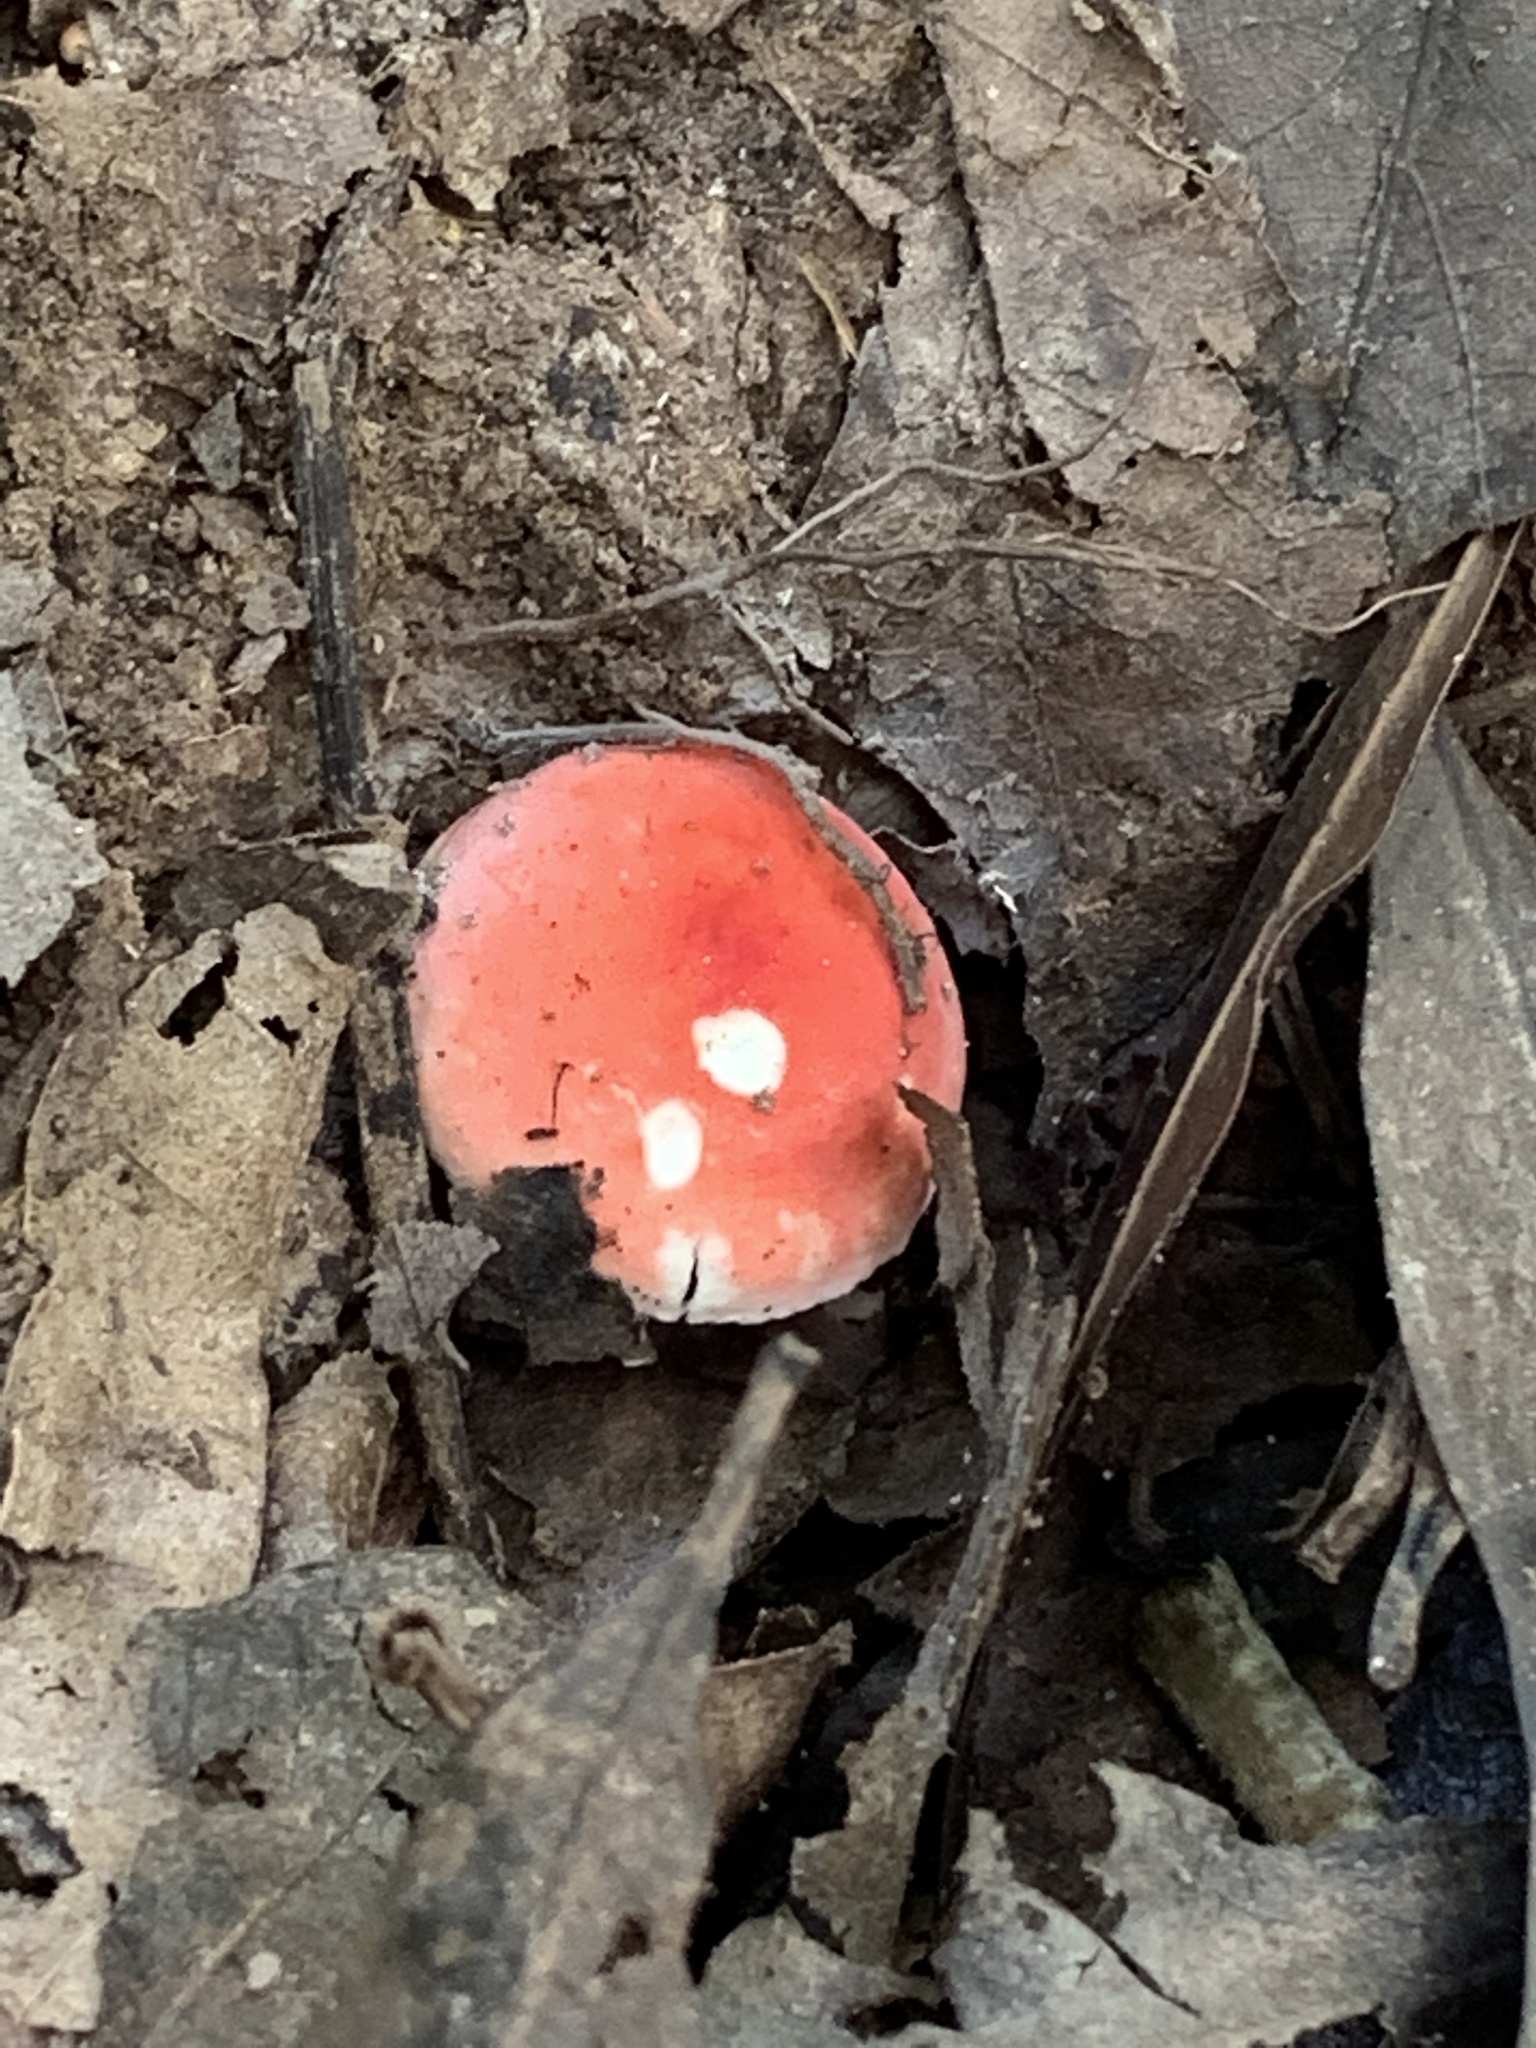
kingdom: Fungi
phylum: Basidiomycota
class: Agaricomycetes
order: Russulales
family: Russulaceae
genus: Russula
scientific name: Russula
